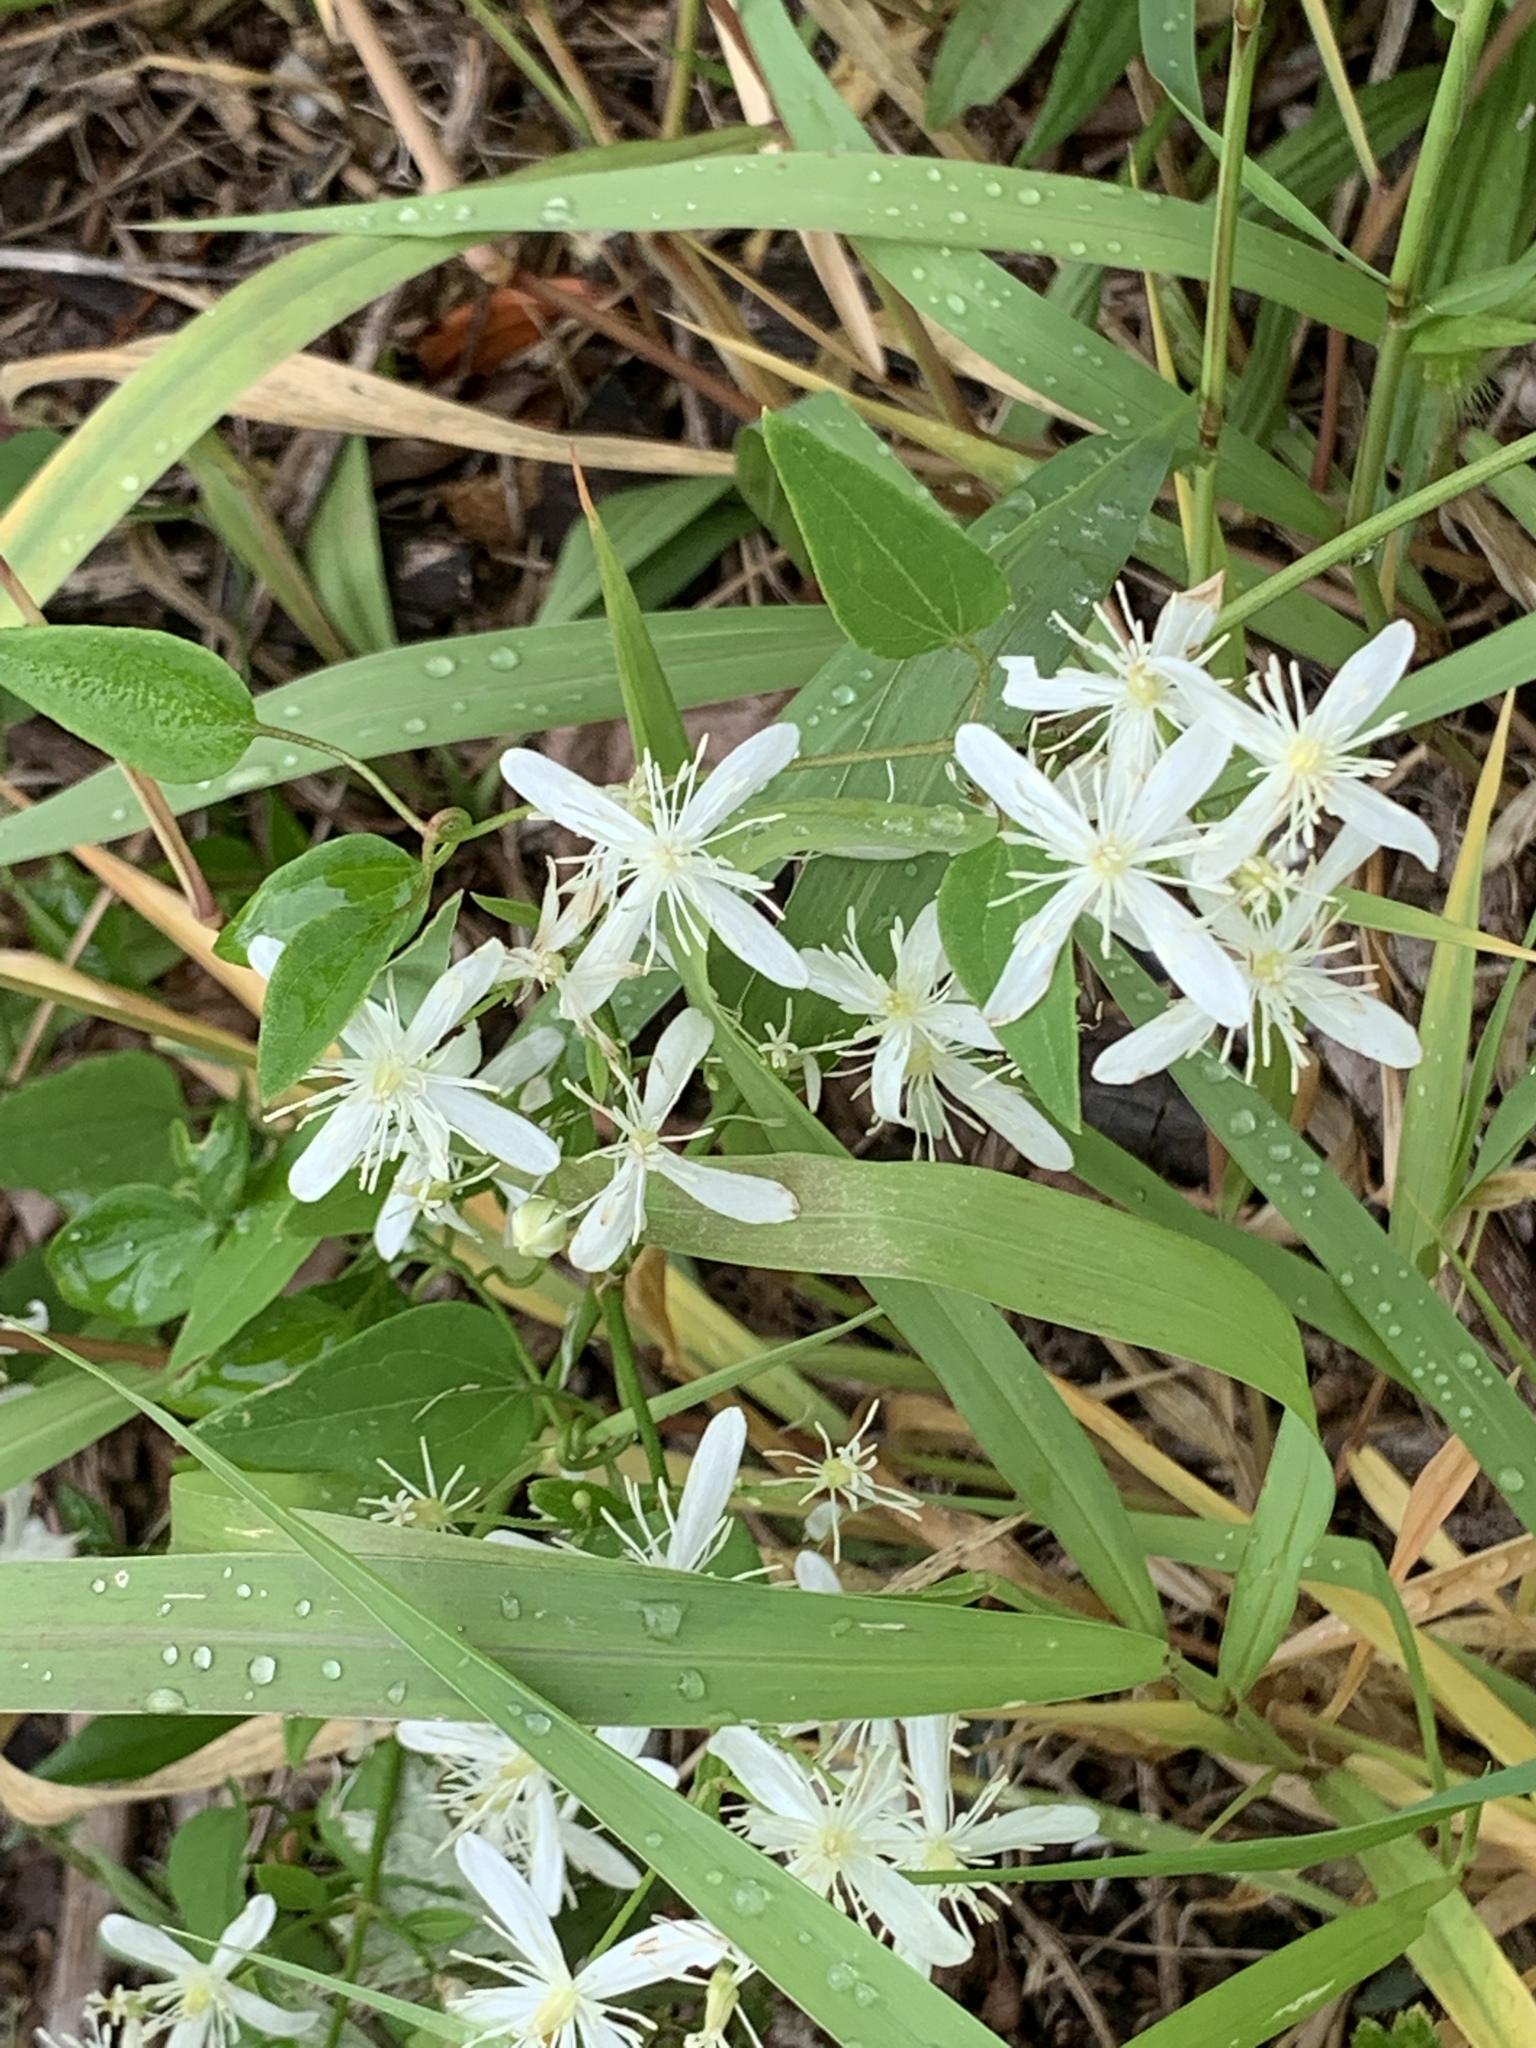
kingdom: Plantae
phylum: Tracheophyta
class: Magnoliopsida
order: Ranunculales
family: Ranunculaceae
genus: Clematis
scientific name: Clematis terniflora
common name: Sweet autumn clematis
